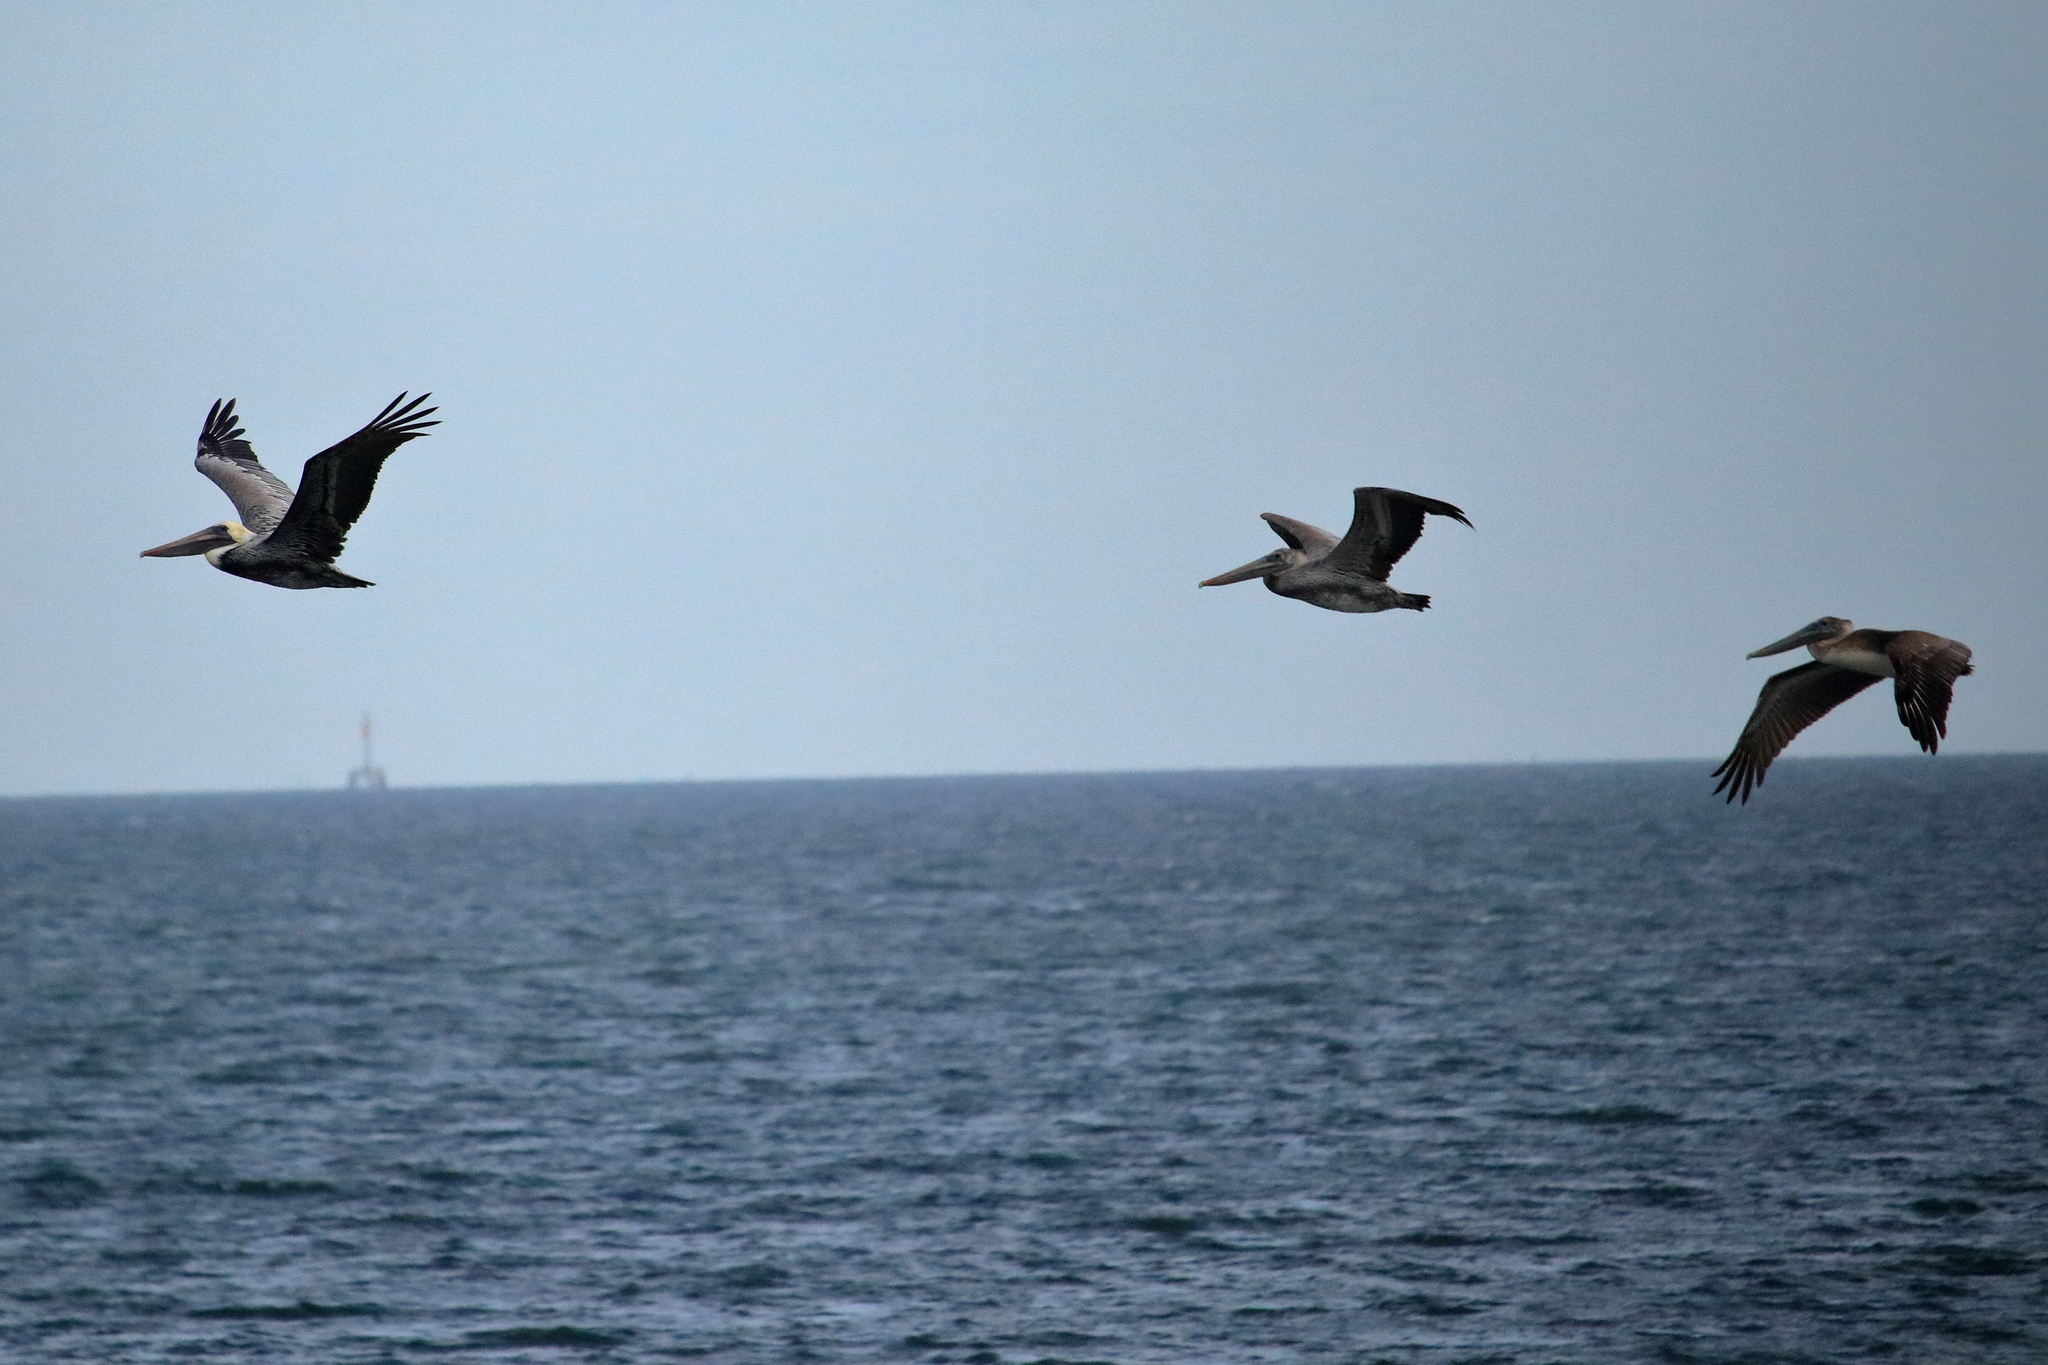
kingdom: Animalia
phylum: Chordata
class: Aves
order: Pelecaniformes
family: Pelecanidae
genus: Pelecanus
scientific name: Pelecanus occidentalis
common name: Brown pelican
